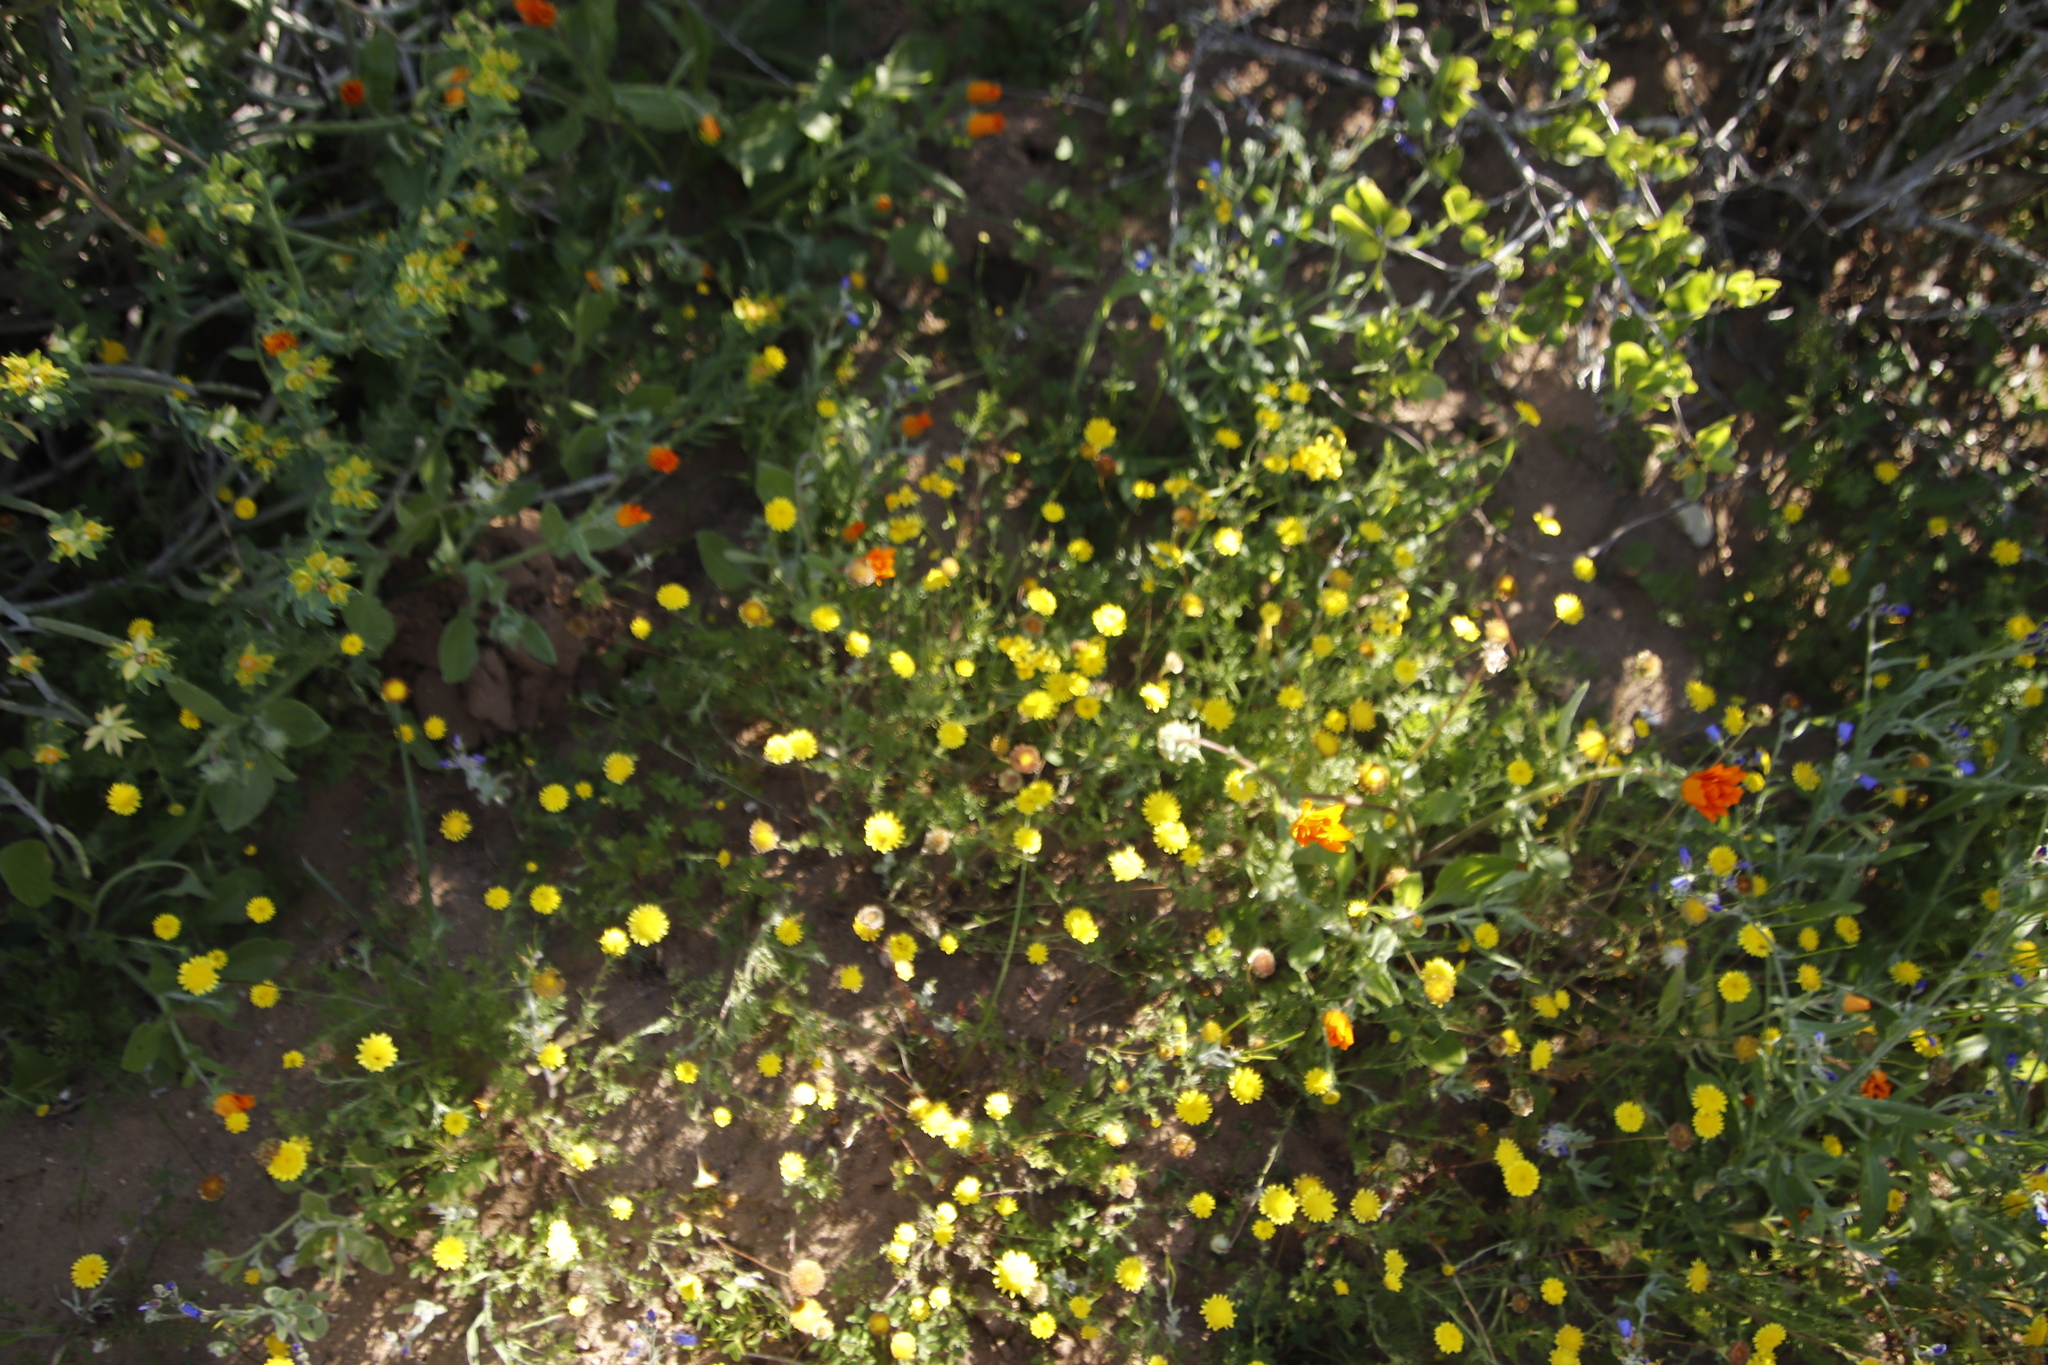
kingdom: Plantae
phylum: Tracheophyta
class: Magnoliopsida
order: Asterales
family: Asteraceae
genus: Cotula
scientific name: Cotula pruinosa
